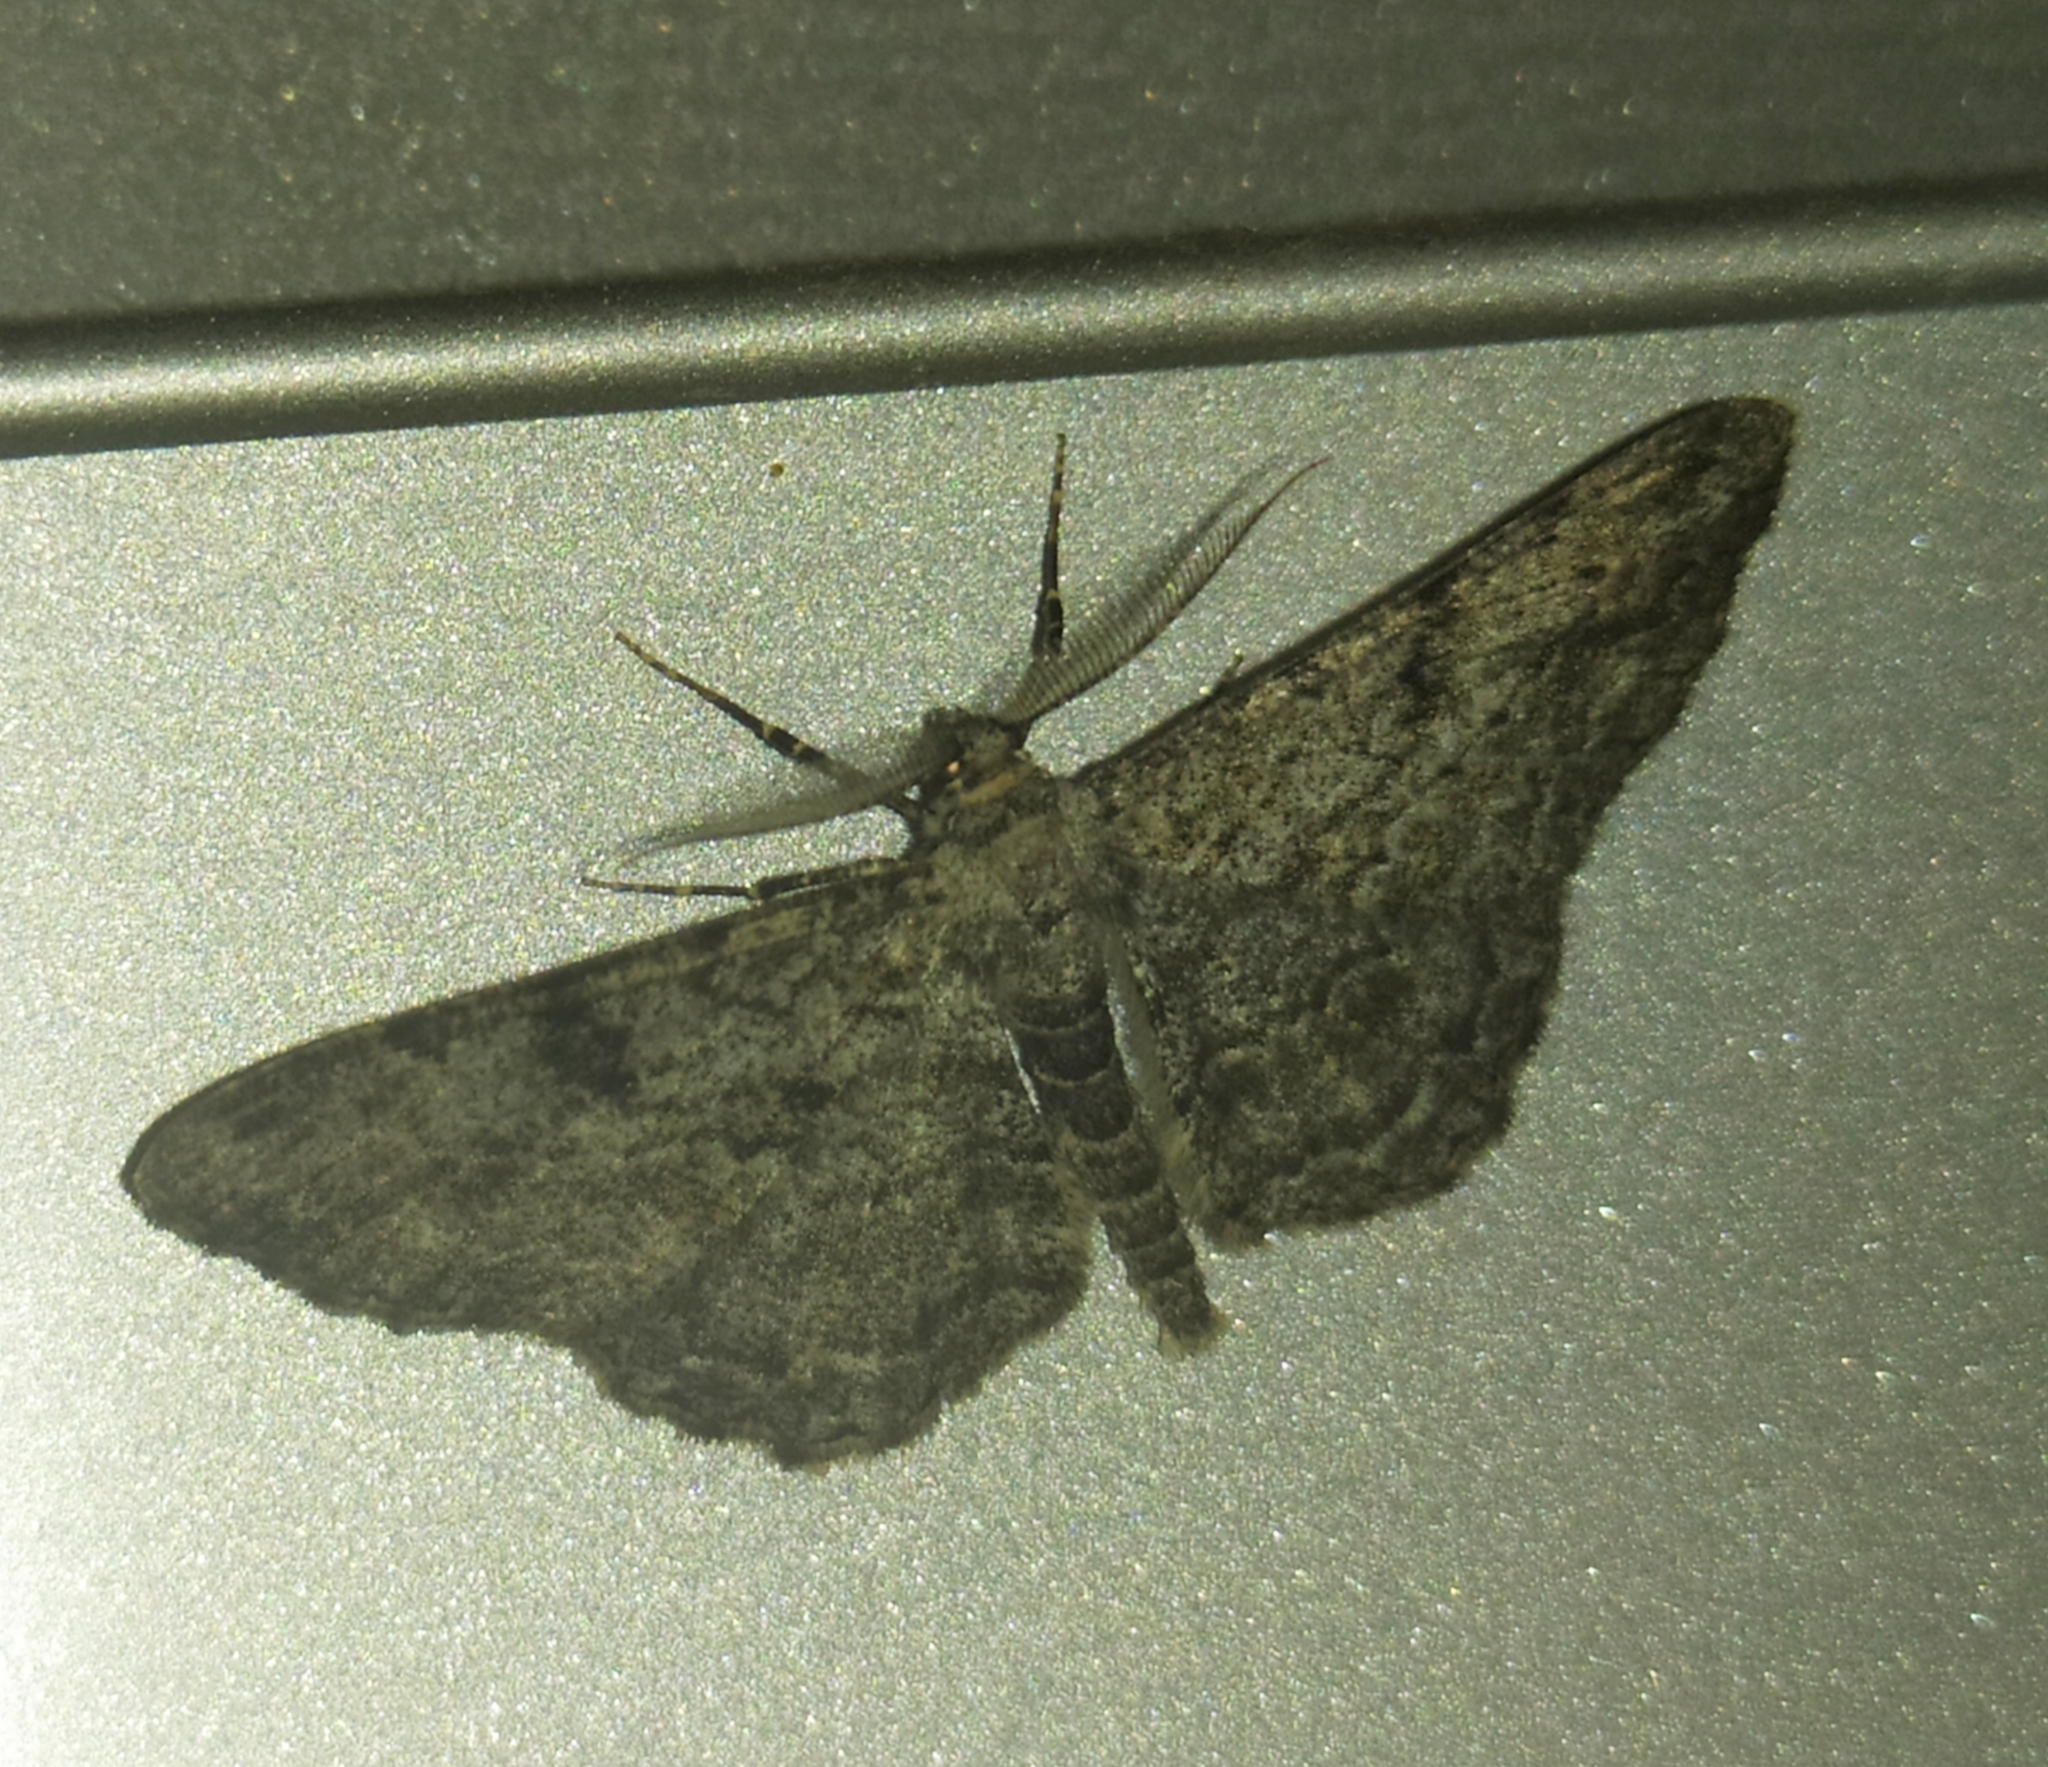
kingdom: Animalia
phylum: Arthropoda
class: Insecta
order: Lepidoptera
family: Geometridae
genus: Peribatodes
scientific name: Peribatodes rhomboidaria
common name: Willow beauty
